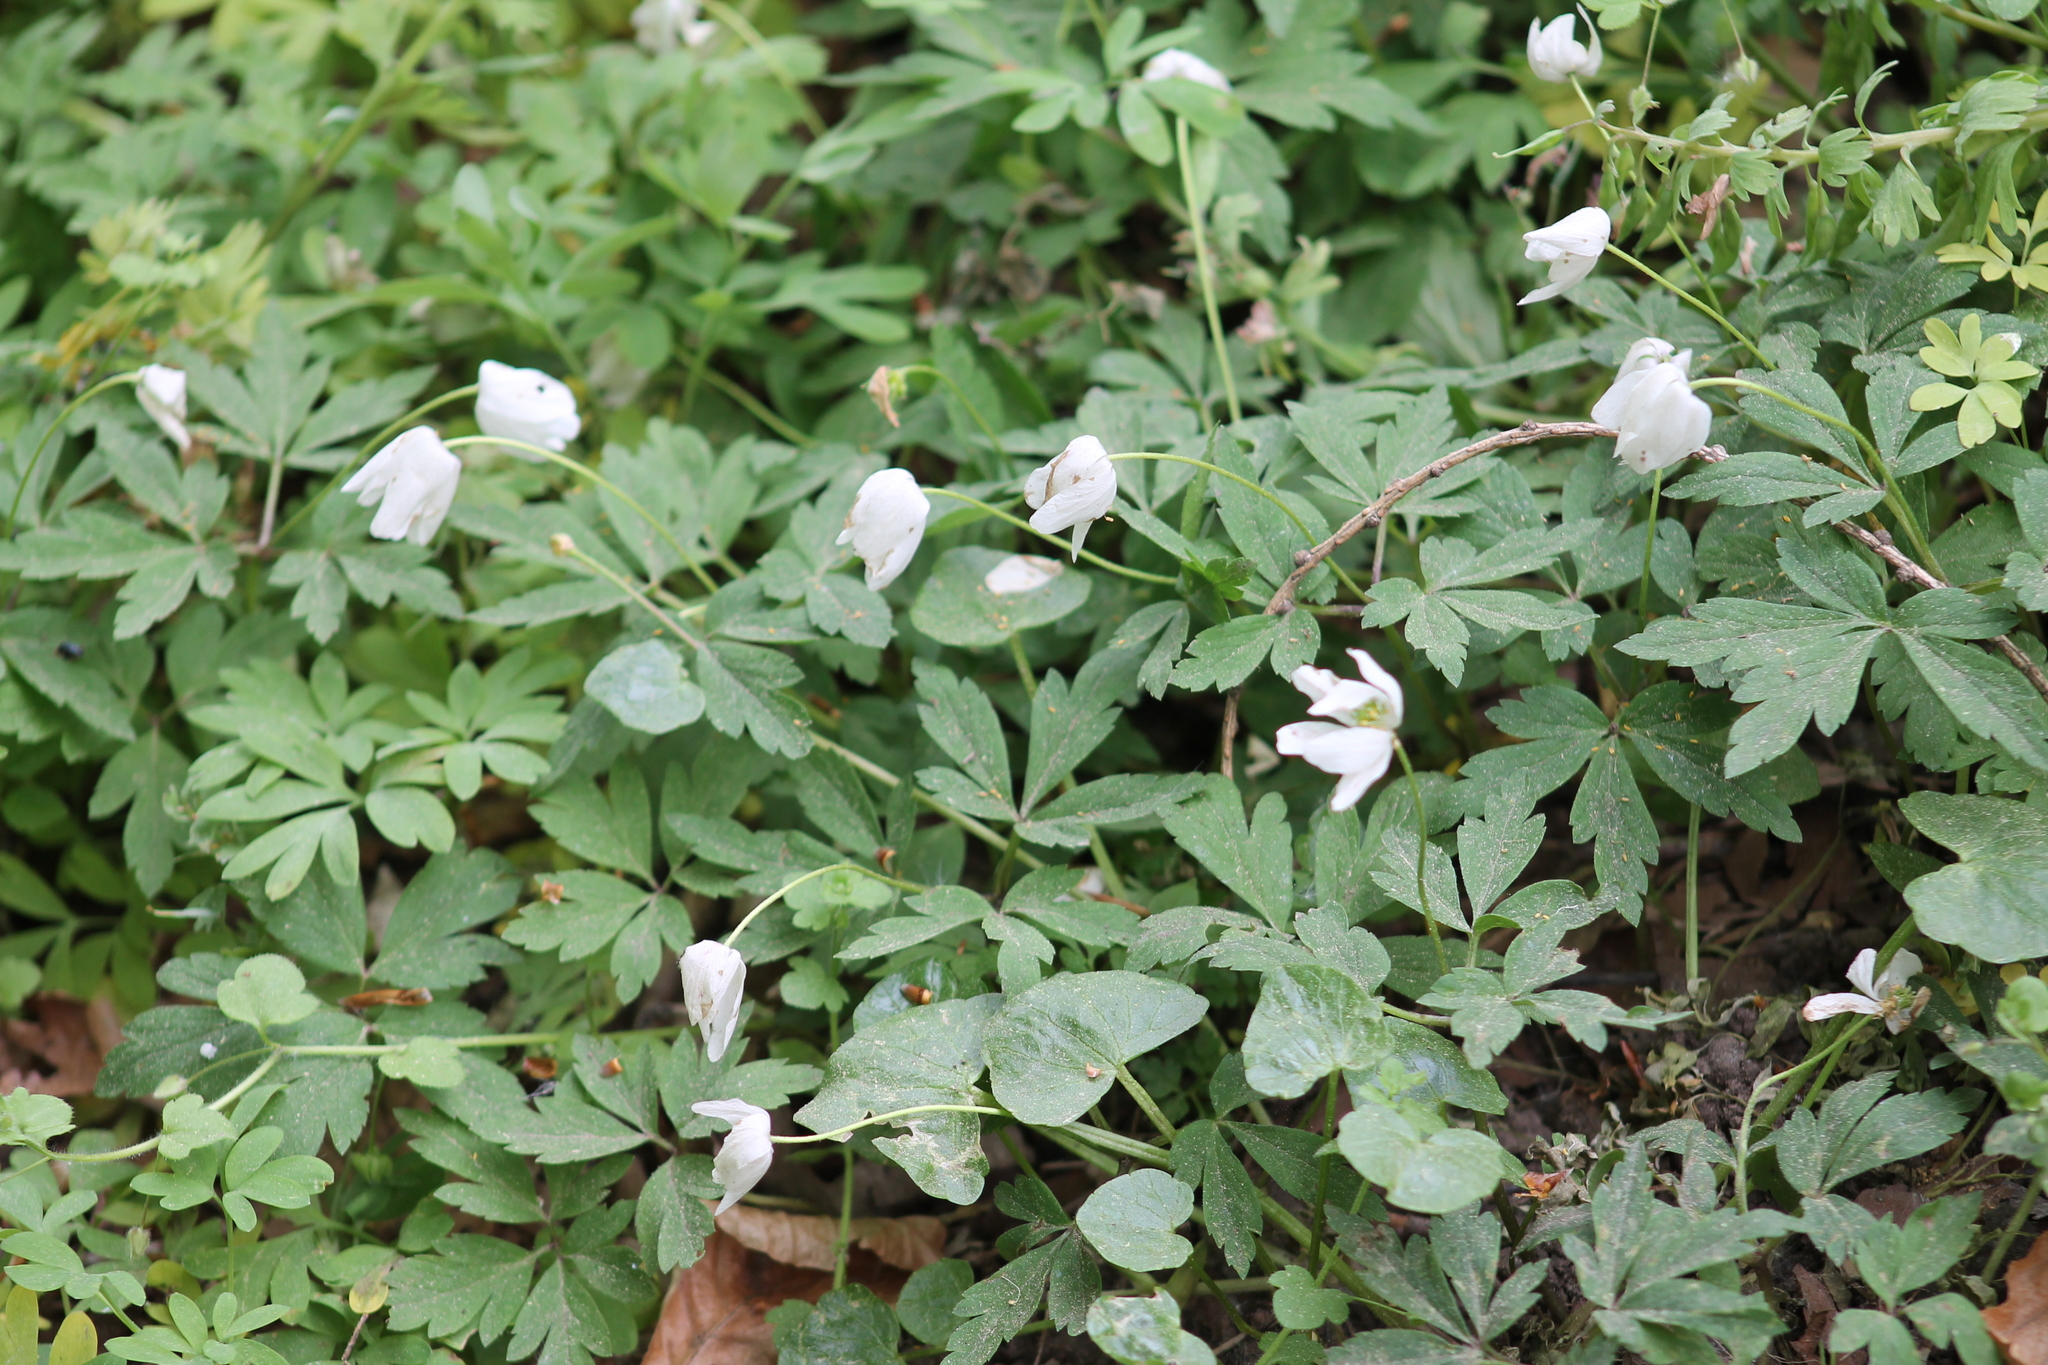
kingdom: Plantae
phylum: Tracheophyta
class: Magnoliopsida
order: Ranunculales
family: Ranunculaceae
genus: Anemone
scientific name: Anemone nemorosa
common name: Wood anemone
